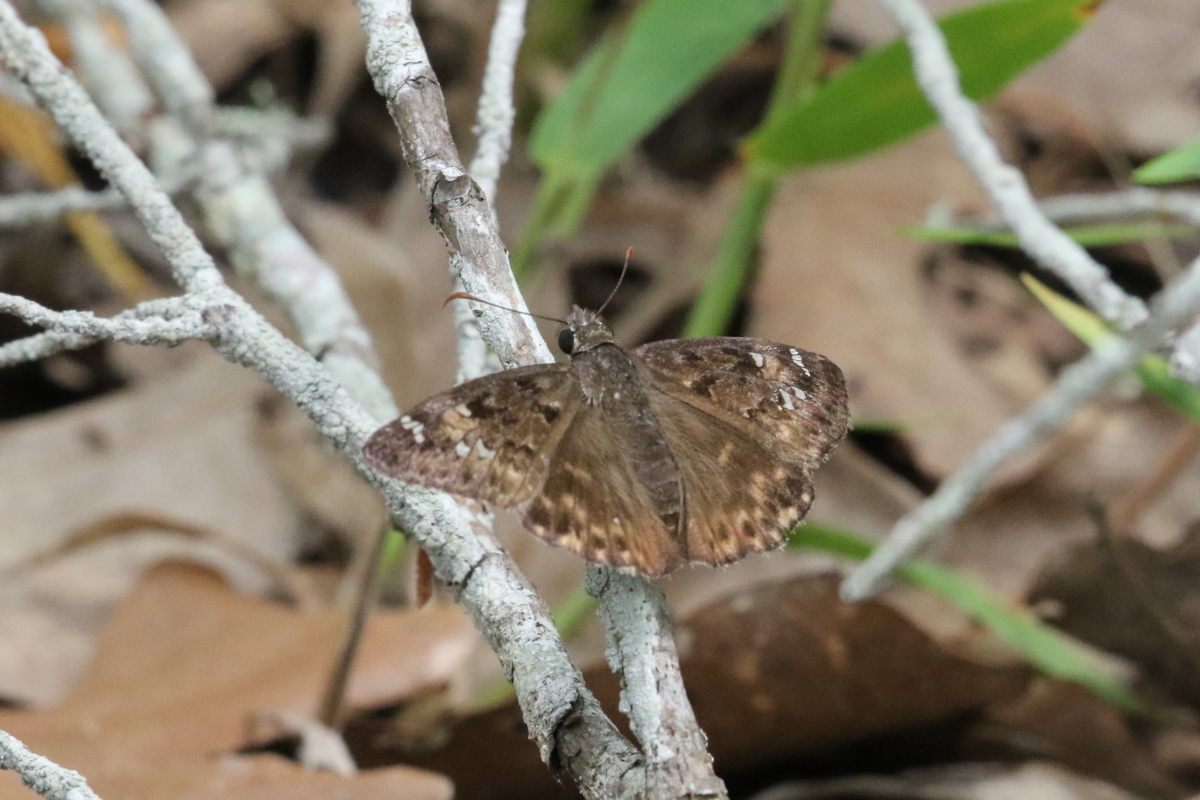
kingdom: Animalia
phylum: Arthropoda
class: Insecta
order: Lepidoptera
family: Hesperiidae
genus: Erynnis
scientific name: Erynnis horatius
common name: Horace's duskywing
